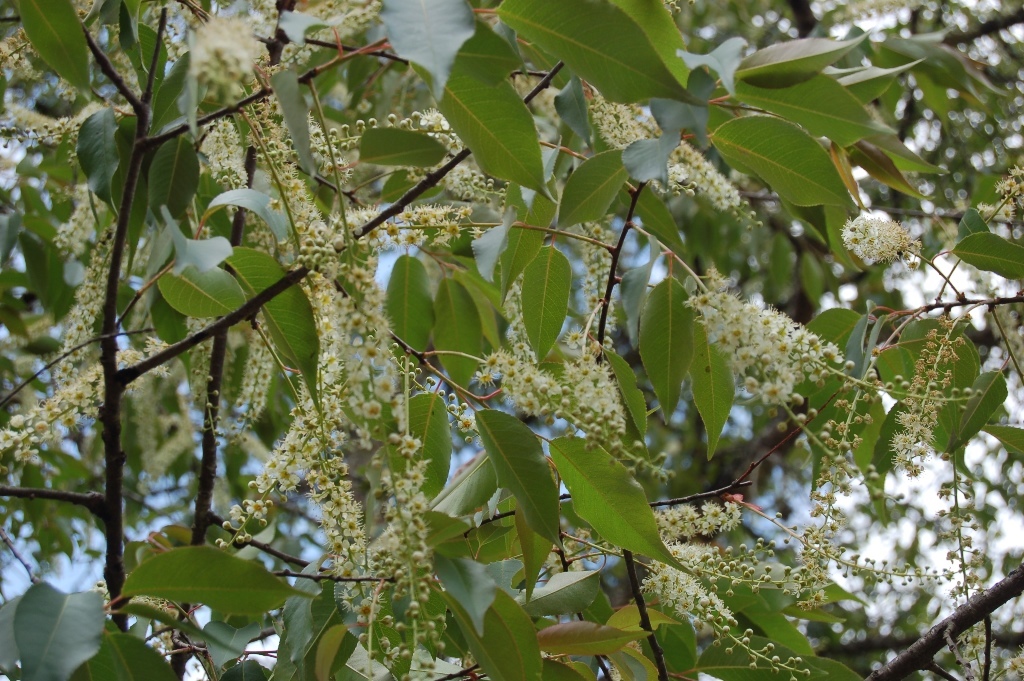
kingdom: Plantae
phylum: Tracheophyta
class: Magnoliopsida
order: Rosales
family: Rosaceae
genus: Prunus
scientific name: Prunus serotina
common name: Black cherry
